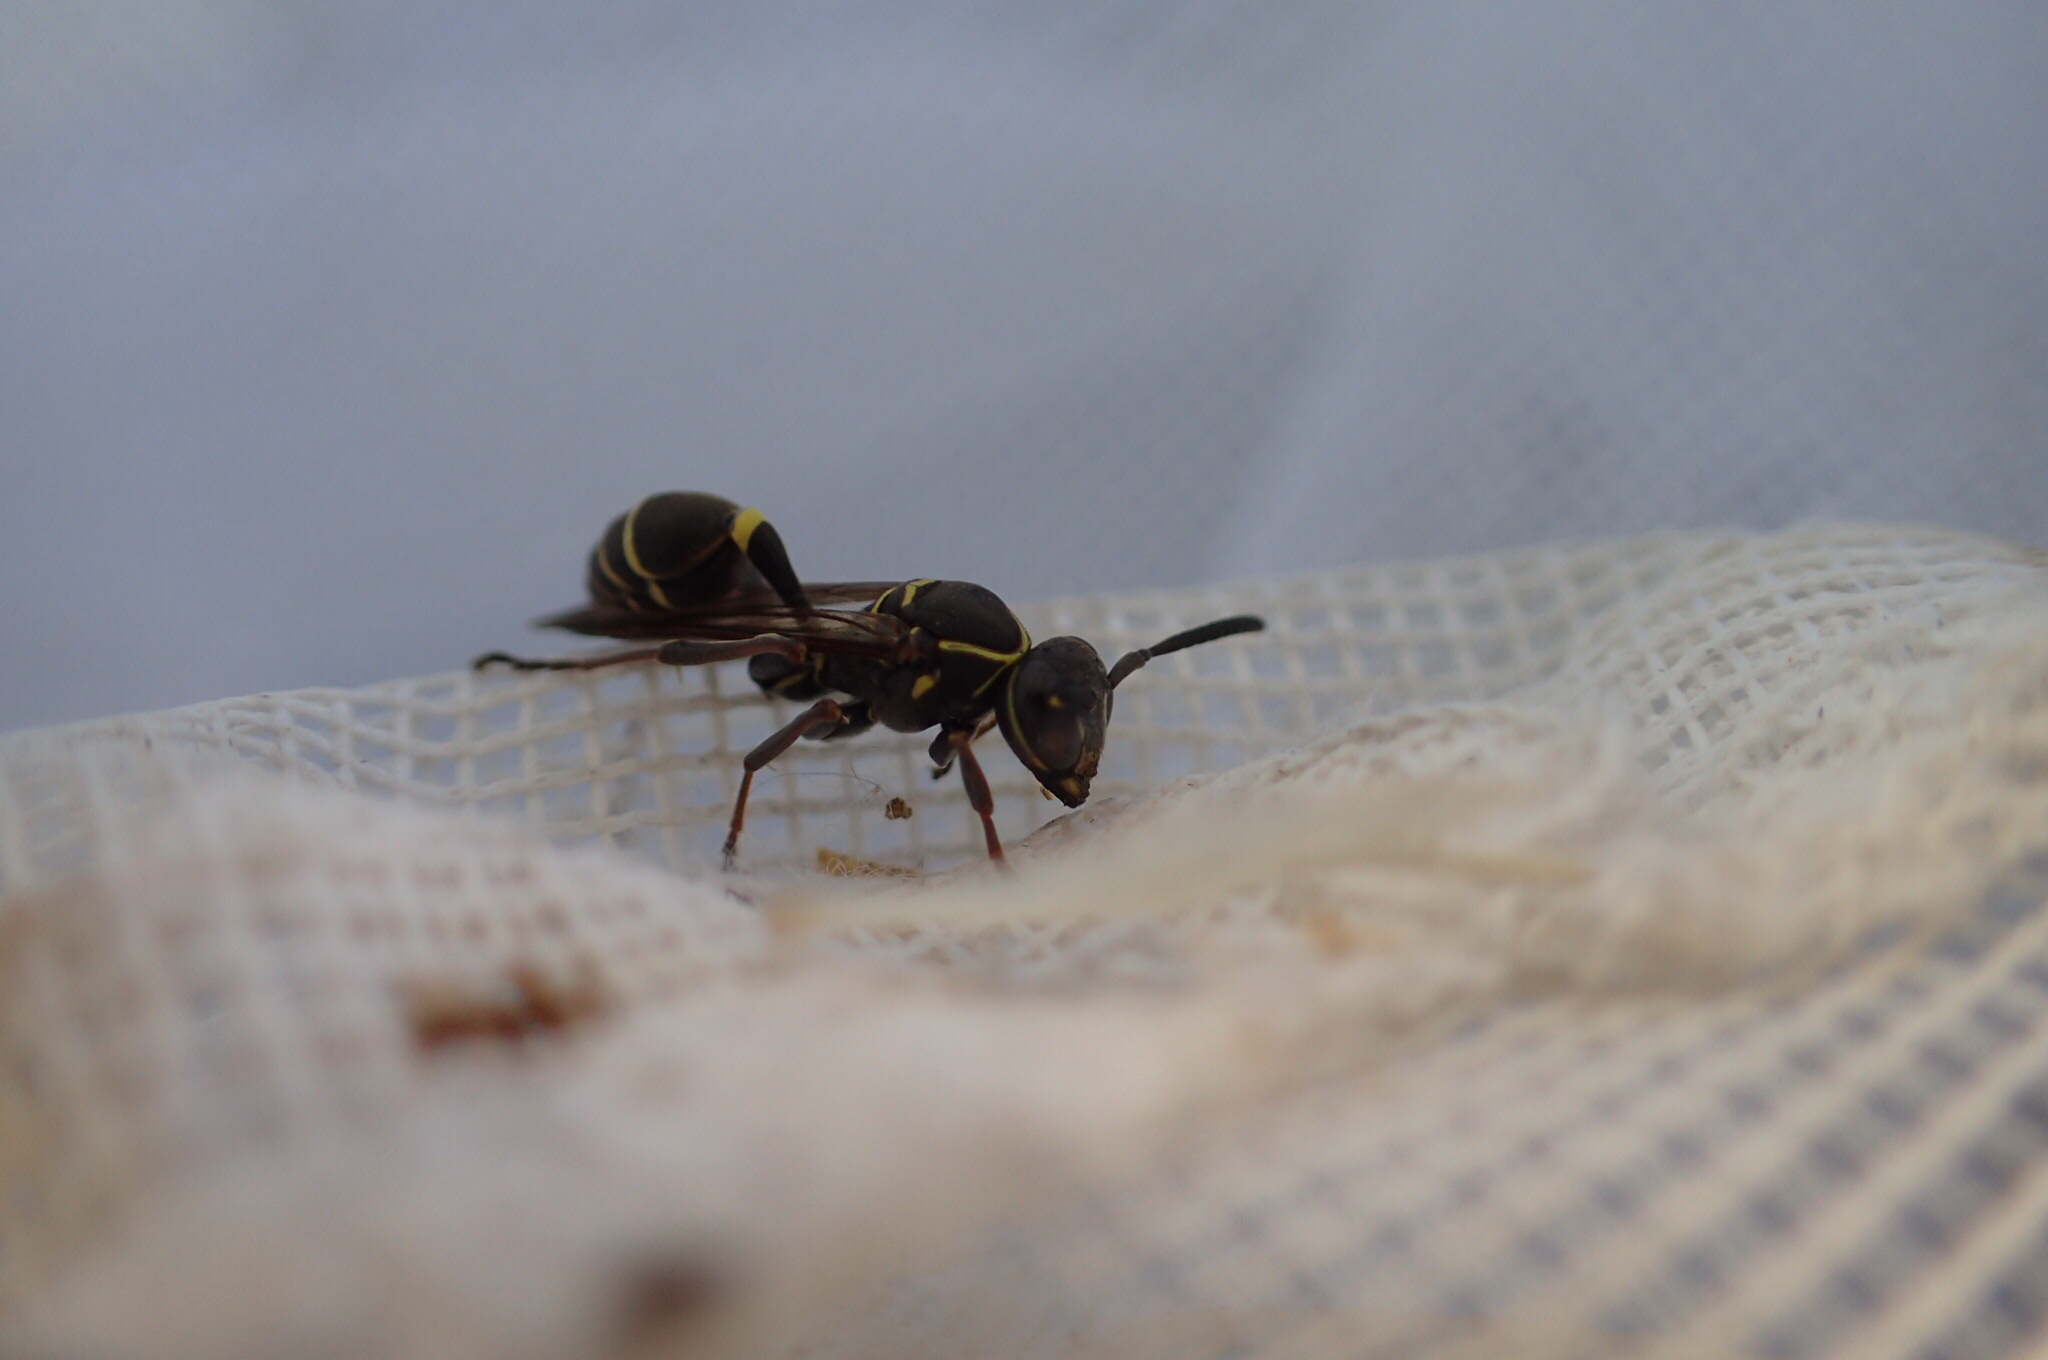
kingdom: Animalia
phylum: Arthropoda
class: Insecta
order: Hymenoptera
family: Vespidae
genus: Mischocyttarus
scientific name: Mischocyttarus pallidipectus
